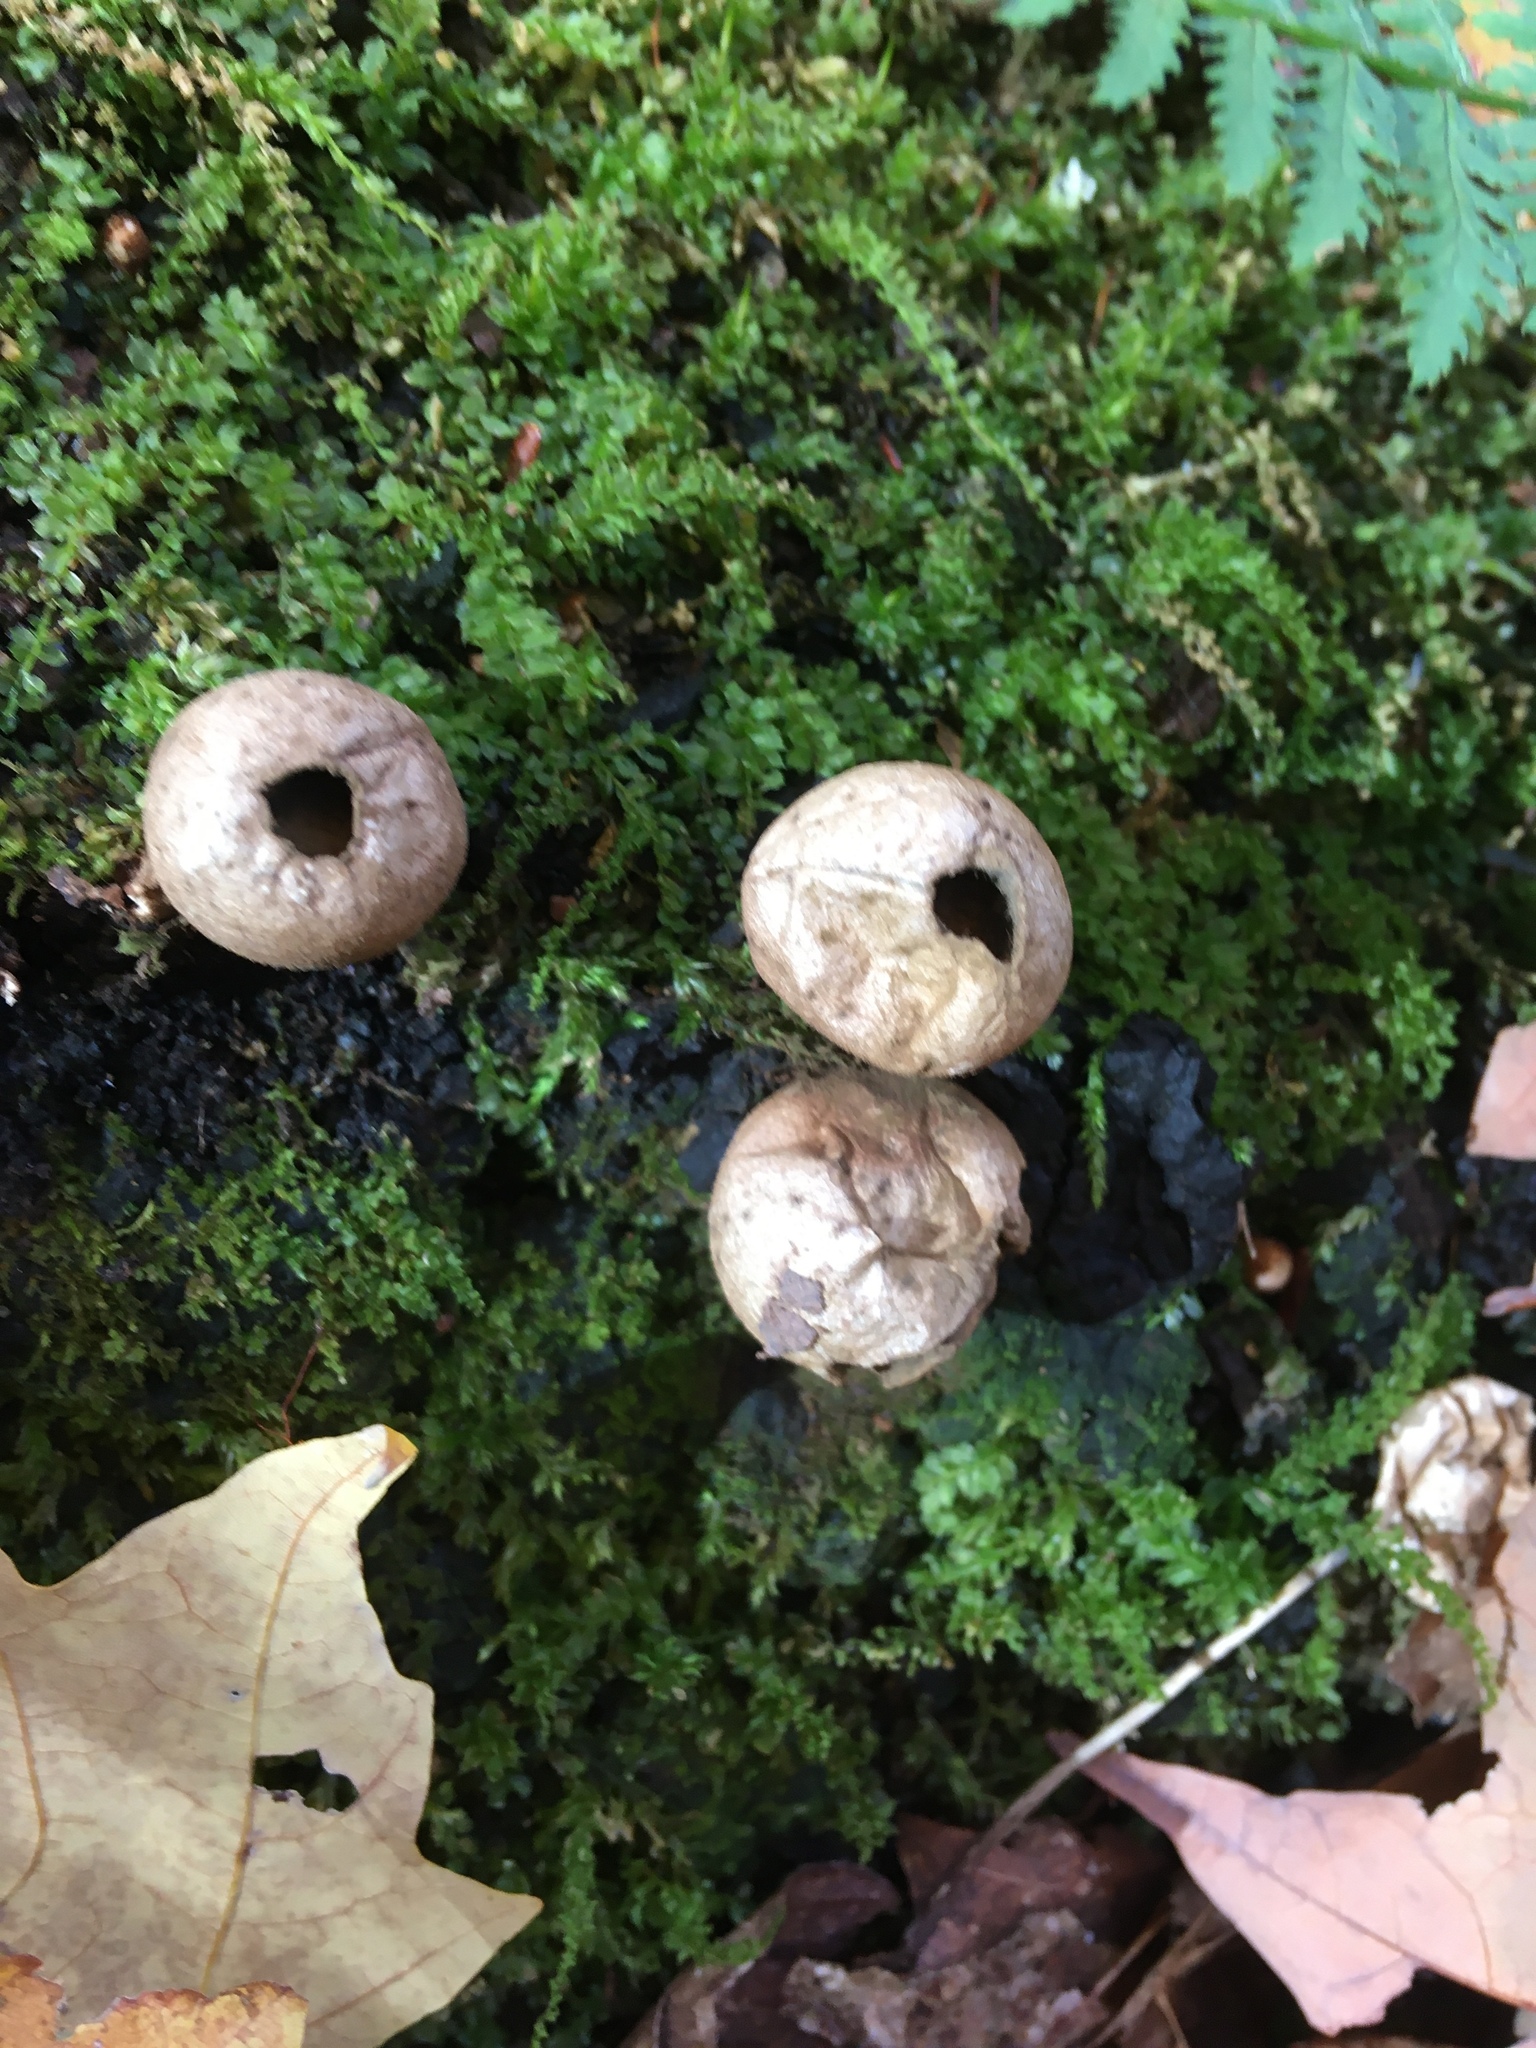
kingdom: Fungi
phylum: Basidiomycota
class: Agaricomycetes
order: Agaricales
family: Lycoperdaceae
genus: Apioperdon
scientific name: Apioperdon pyriforme
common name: Pear-shaped puffball
